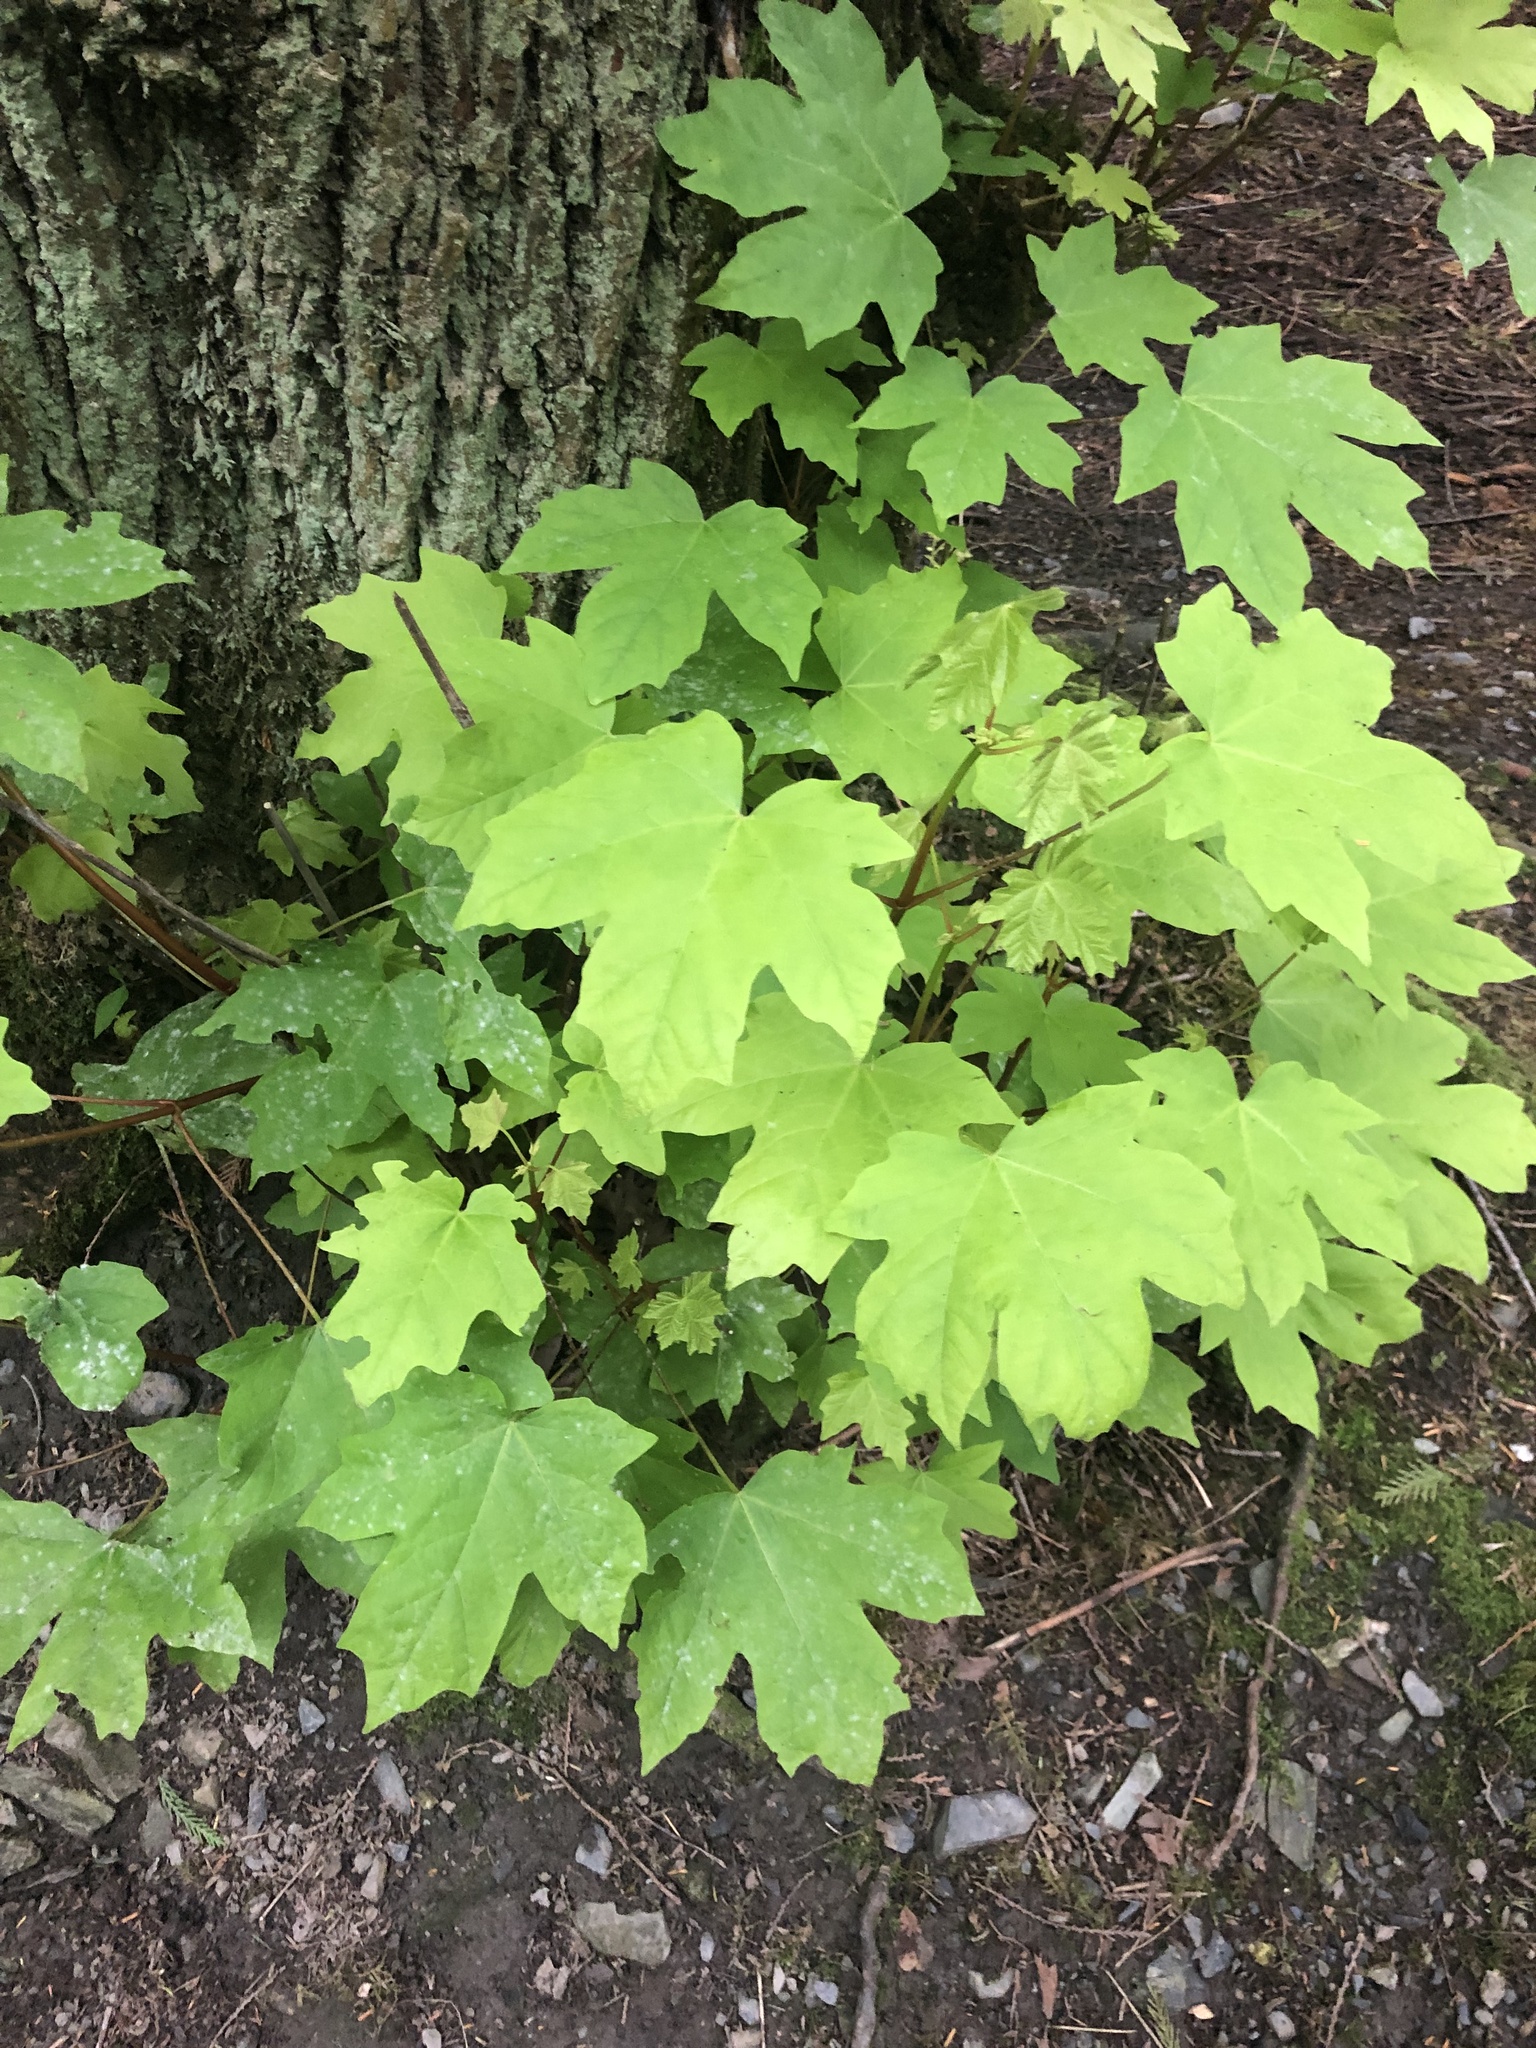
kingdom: Plantae
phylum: Tracheophyta
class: Magnoliopsida
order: Sapindales
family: Sapindaceae
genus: Acer
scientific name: Acer macrophyllum
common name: Oregon maple
